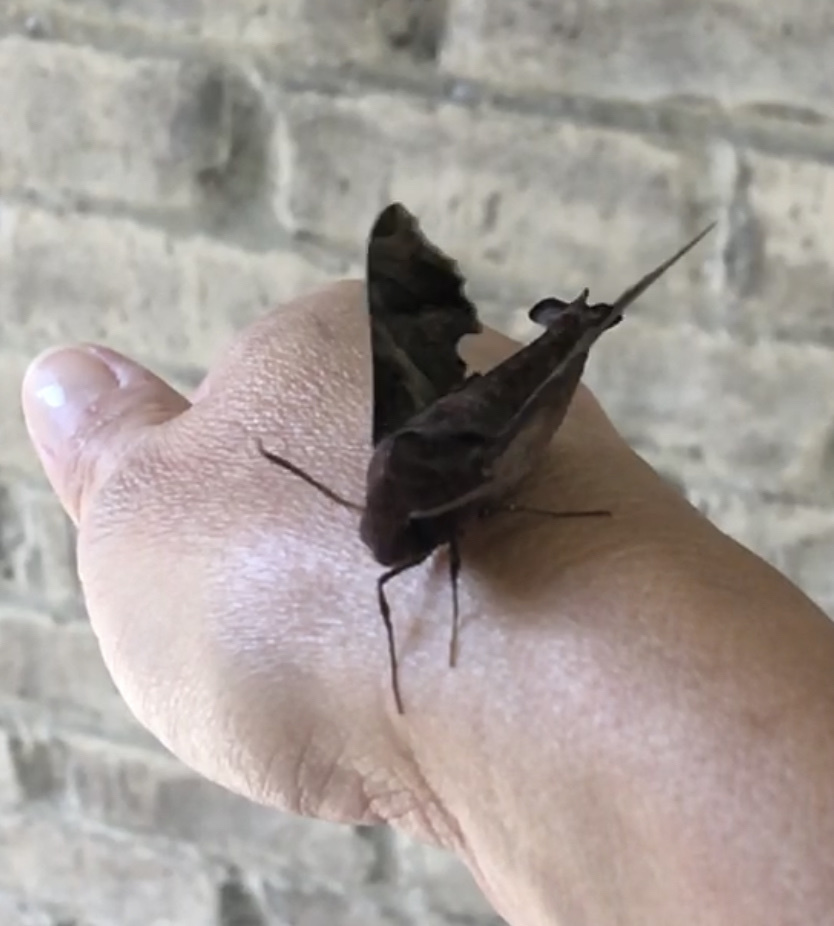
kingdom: Animalia
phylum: Arthropoda
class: Insecta
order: Lepidoptera
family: Sphingidae
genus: Enyo
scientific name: Enyo lugubris
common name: Mournful sphinx
